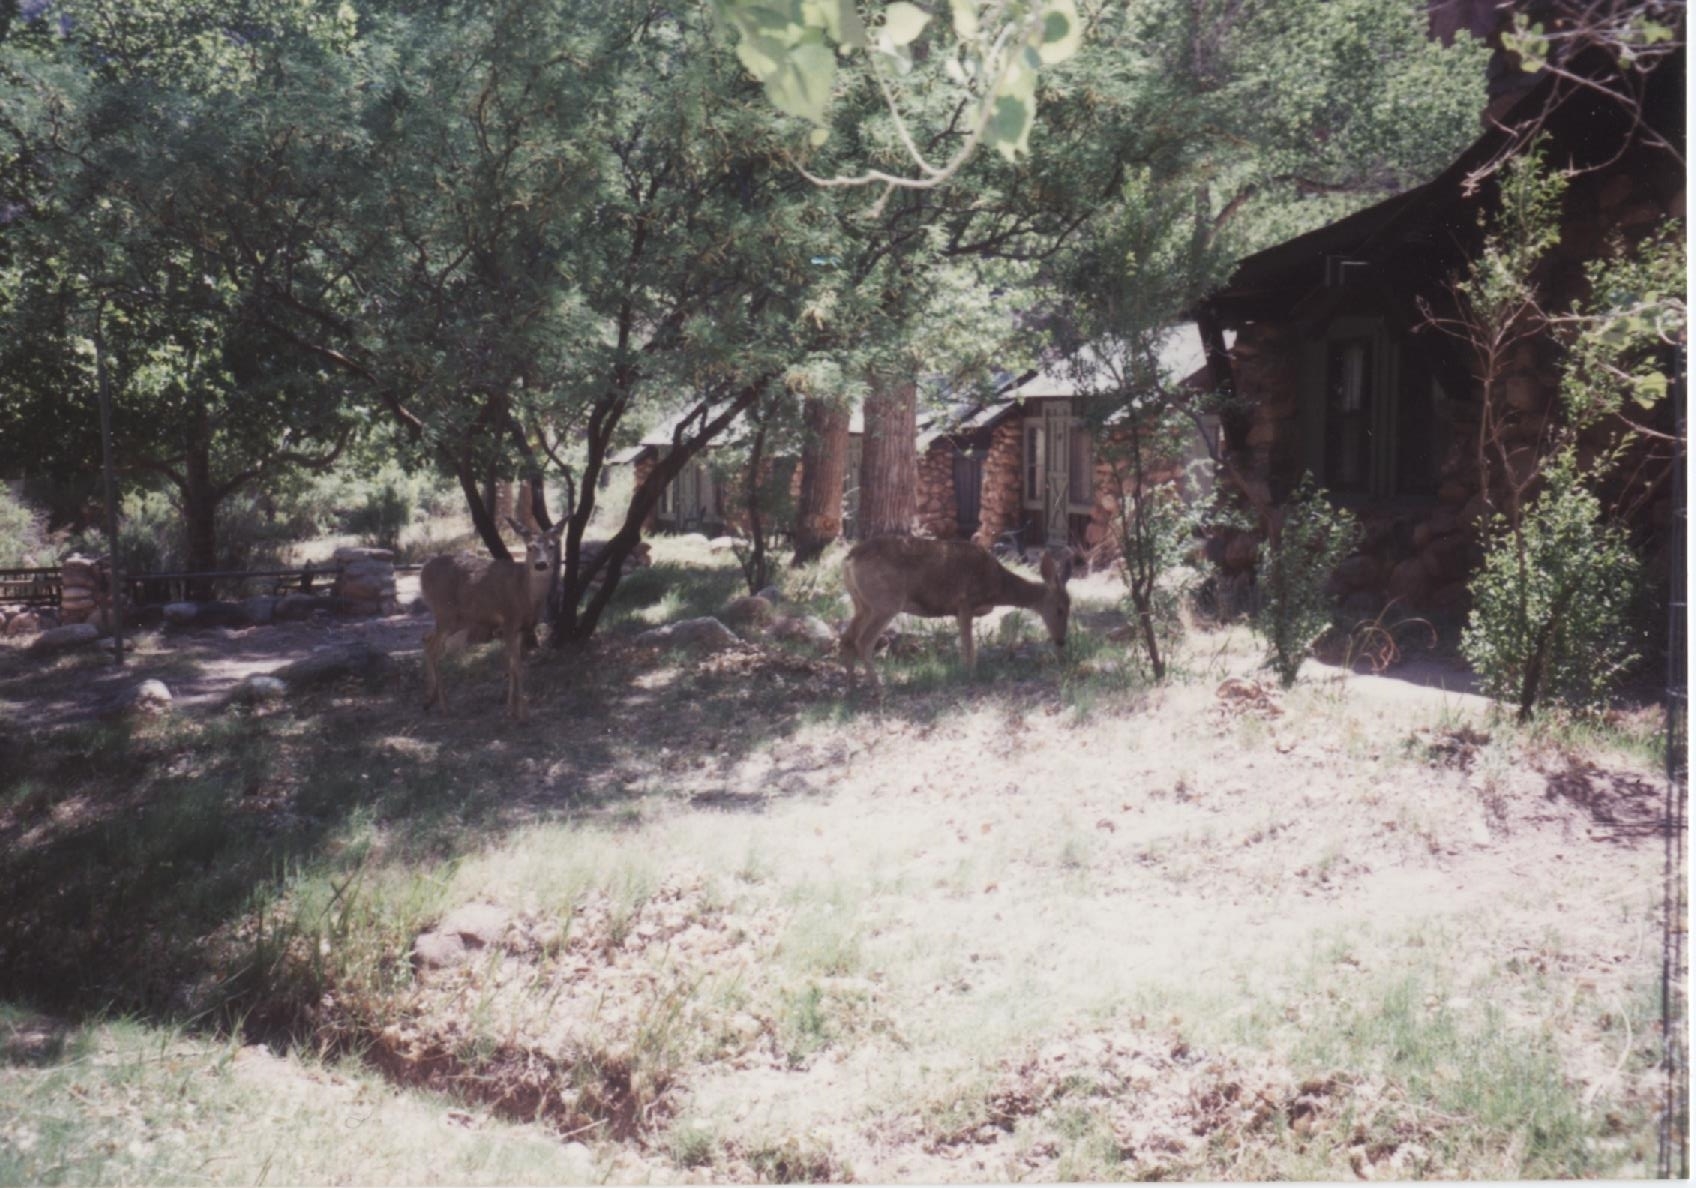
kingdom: Animalia
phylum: Chordata
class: Mammalia
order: Artiodactyla
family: Cervidae
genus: Odocoileus
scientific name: Odocoileus hemionus
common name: Mule deer
